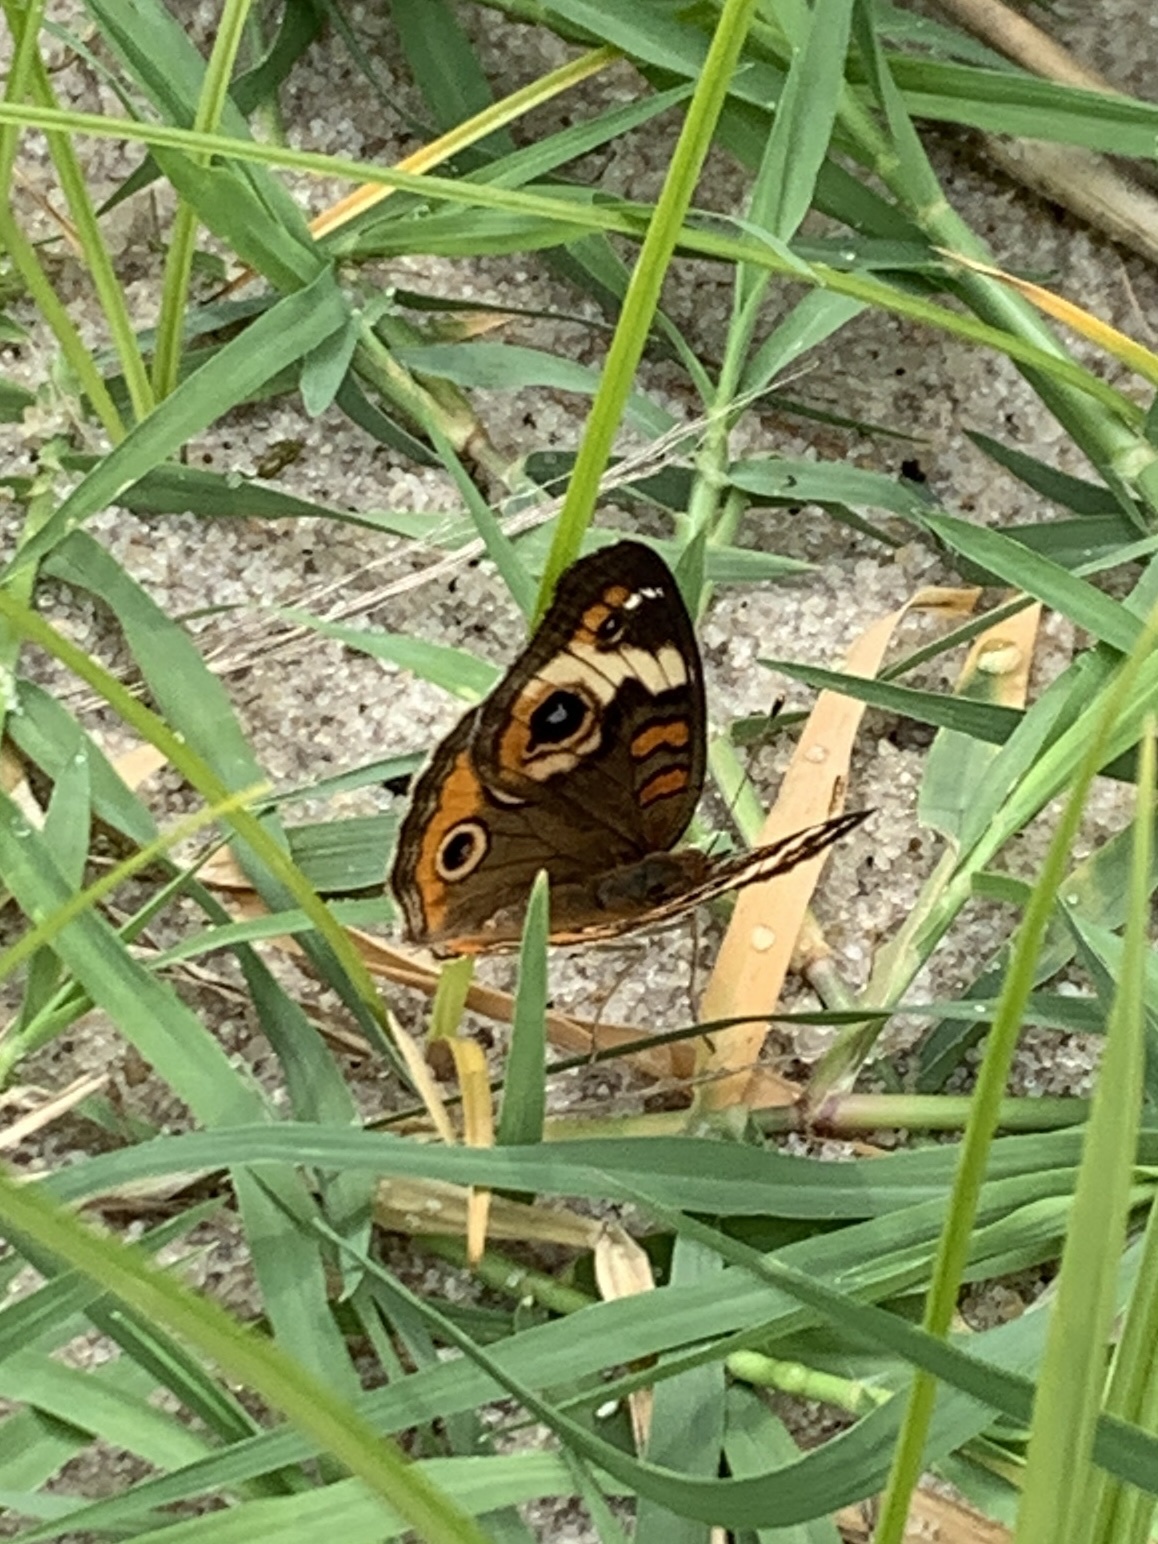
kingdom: Animalia
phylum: Arthropoda
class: Insecta
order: Lepidoptera
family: Nymphalidae
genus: Junonia
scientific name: Junonia coenia
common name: Common buckeye
